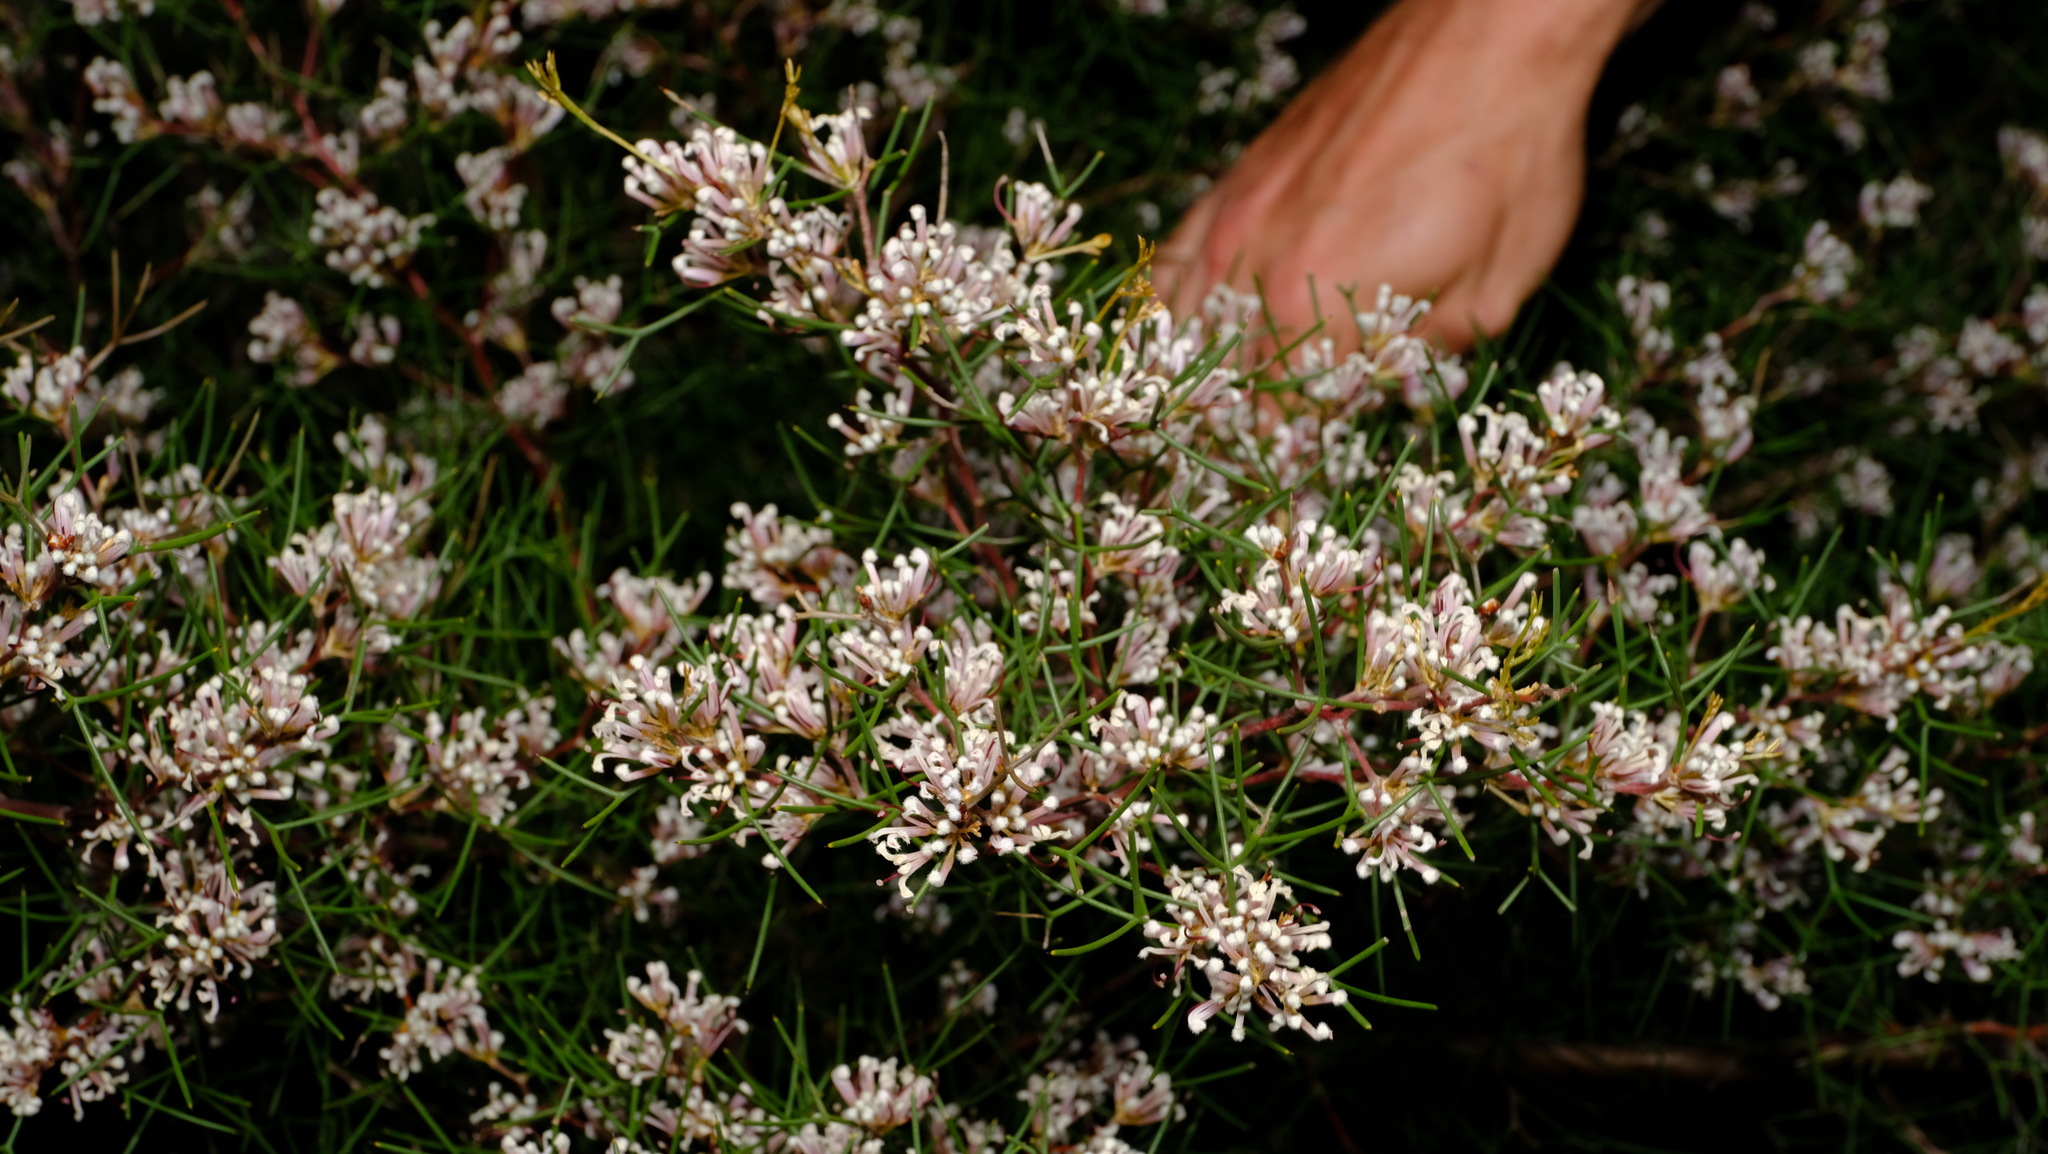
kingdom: Plantae
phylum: Tracheophyta
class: Magnoliopsida
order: Proteales
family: Proteaceae
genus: Hakea
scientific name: Hakea trifurcata
